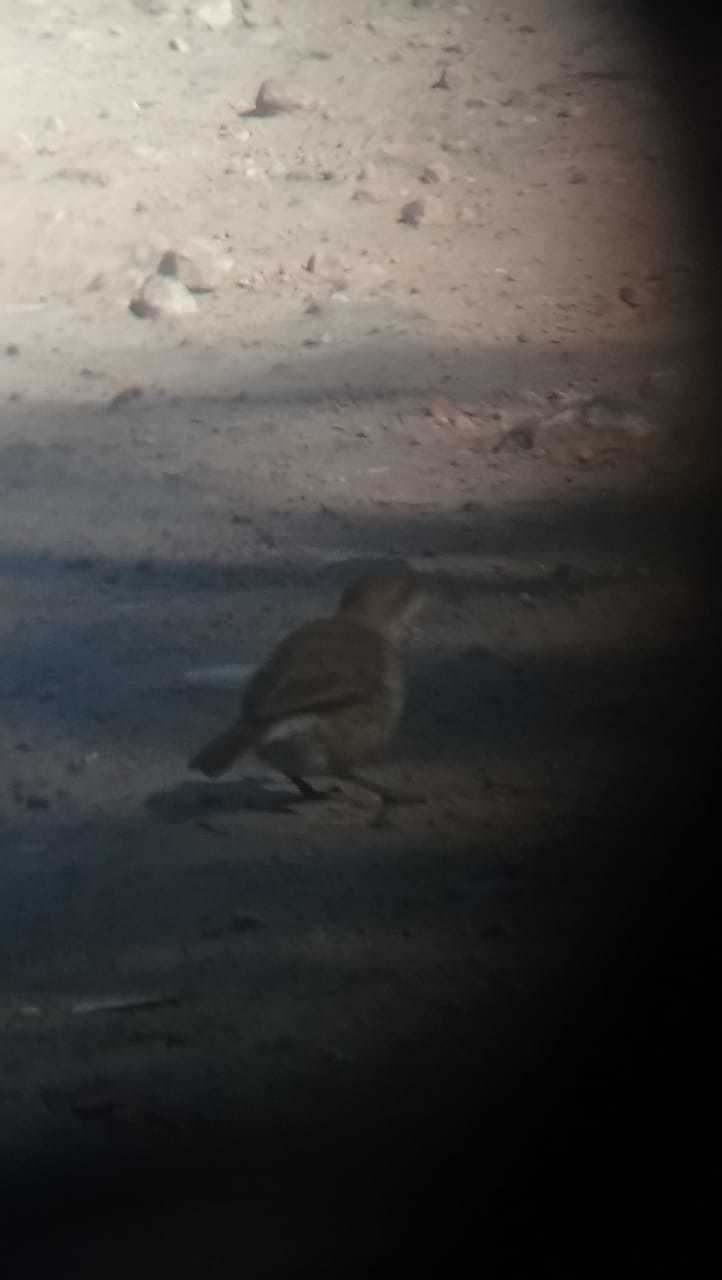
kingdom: Animalia
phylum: Chordata
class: Aves
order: Passeriformes
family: Furnariidae
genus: Furnarius
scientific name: Furnarius rufus
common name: Rufous hornero
